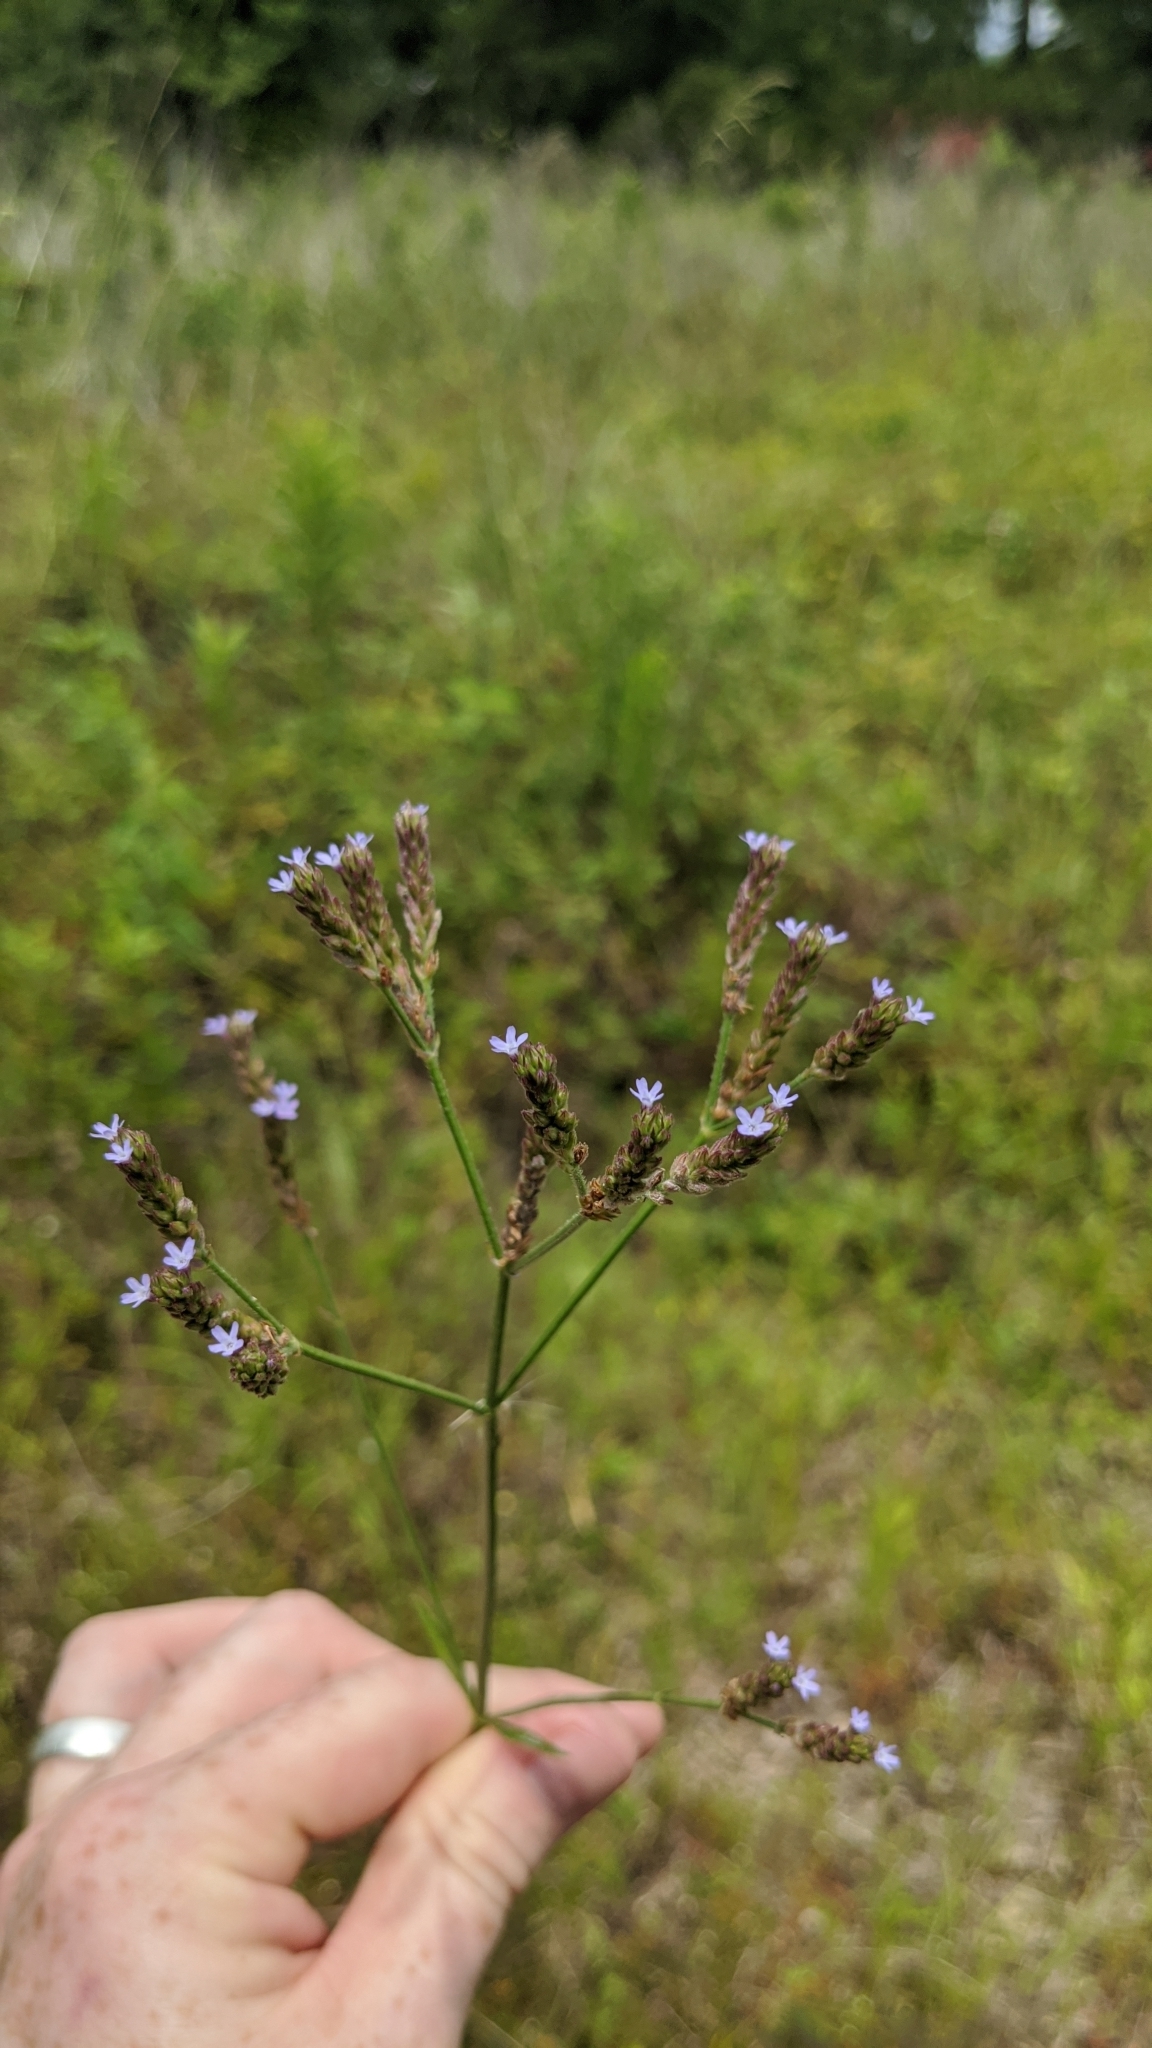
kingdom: Plantae
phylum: Tracheophyta
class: Magnoliopsida
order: Lamiales
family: Verbenaceae
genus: Verbena
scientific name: Verbena brasiliensis
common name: Brazilian vervain
